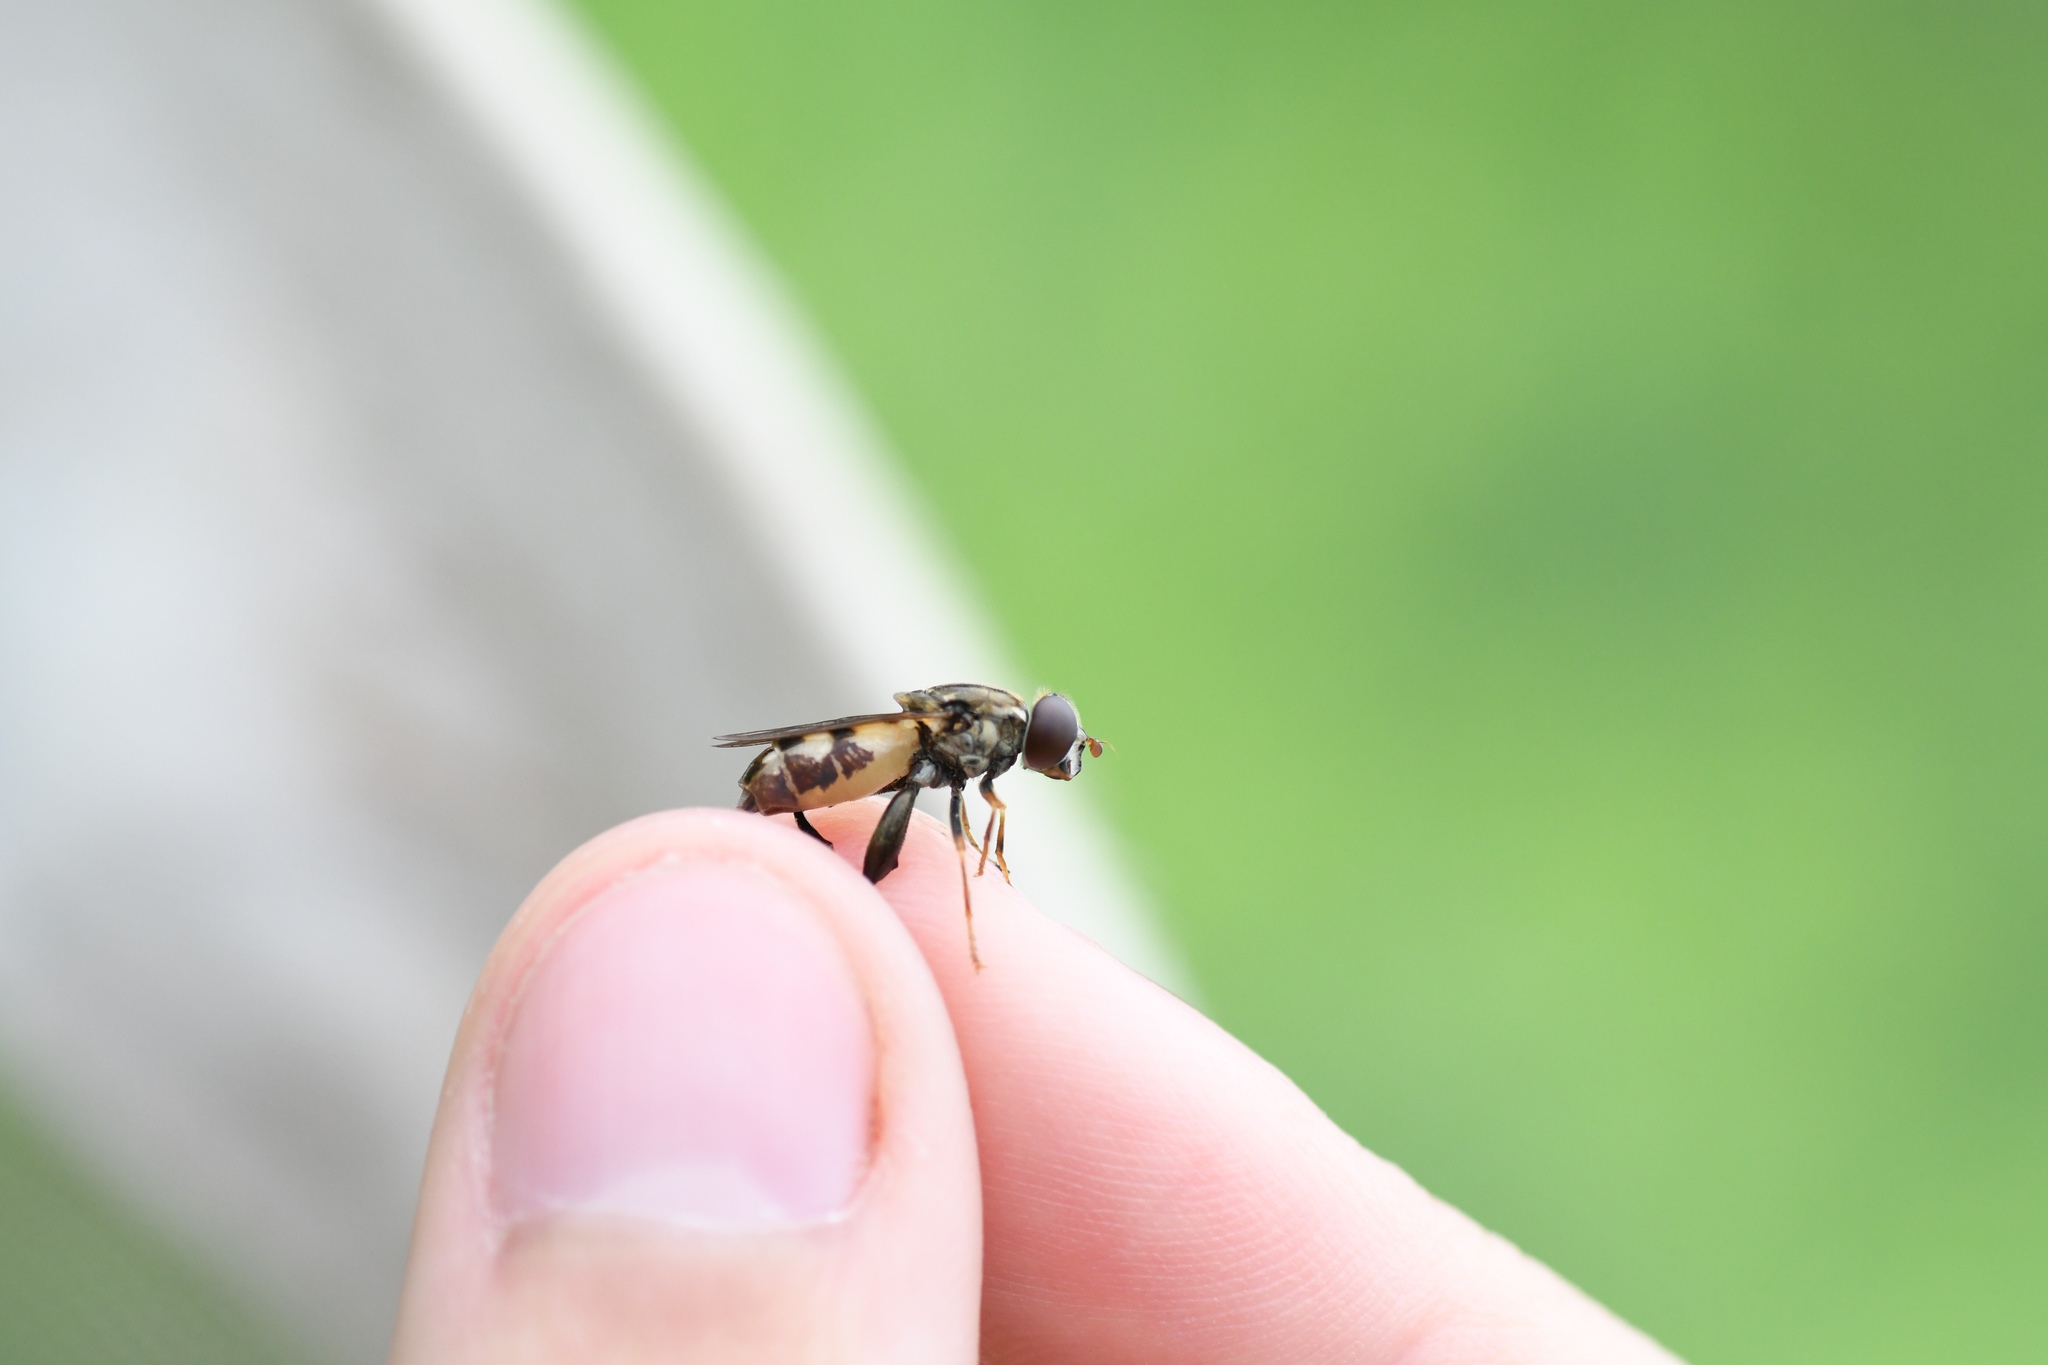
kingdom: Animalia
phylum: Arthropoda
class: Insecta
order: Diptera
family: Syrphidae
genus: Tropidia
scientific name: Tropidia quadrata
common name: Common thick-legged fly
